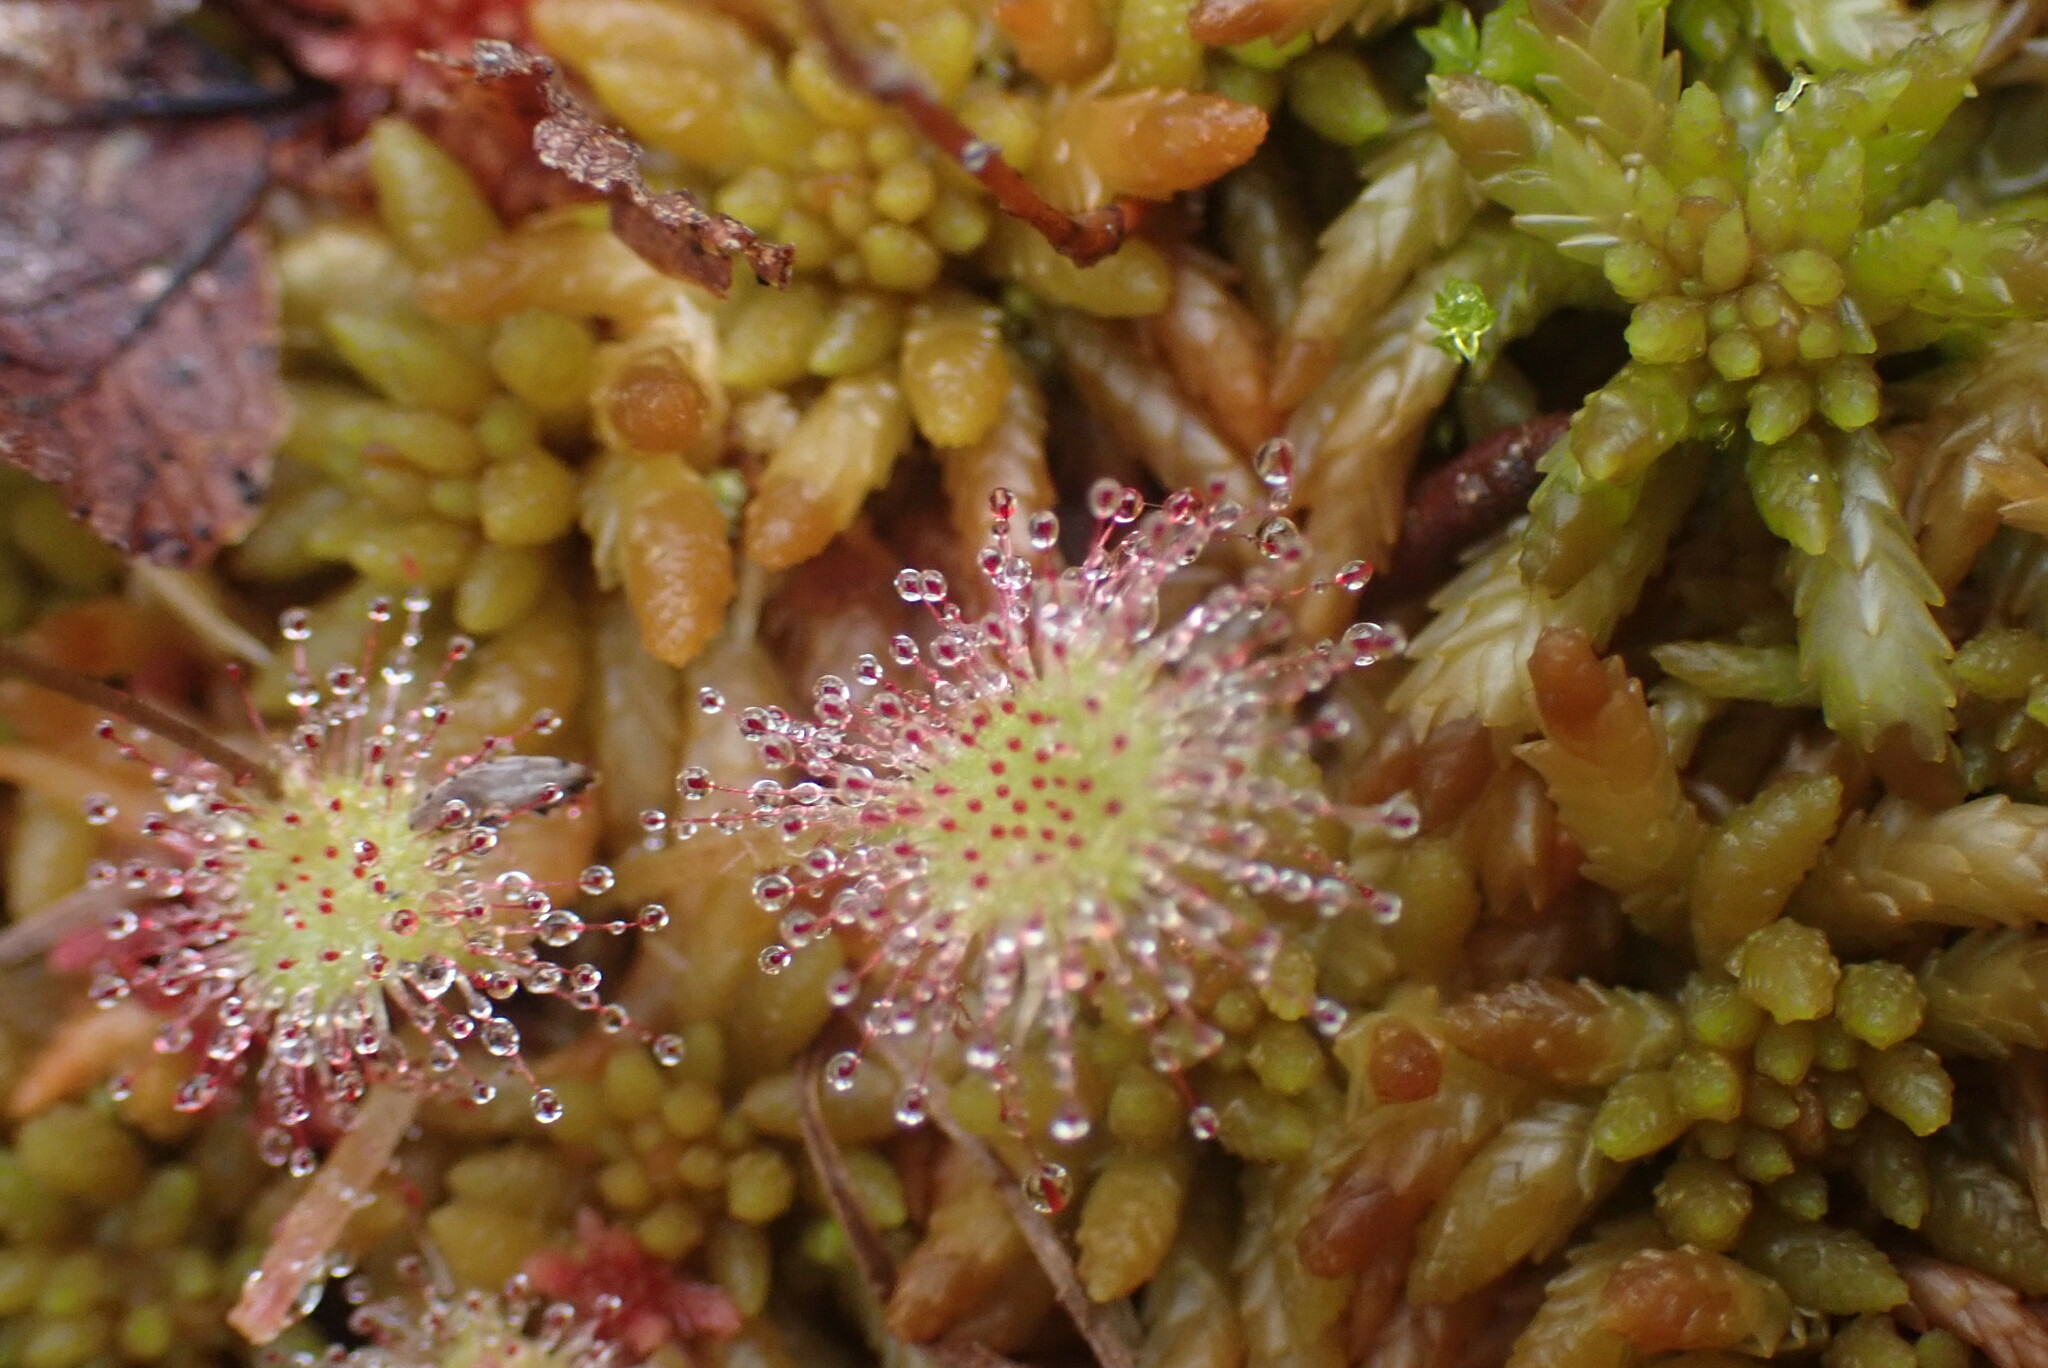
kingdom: Plantae
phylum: Tracheophyta
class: Magnoliopsida
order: Caryophyllales
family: Droseraceae
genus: Drosera
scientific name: Drosera rotundifolia
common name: Round-leaved sundew
